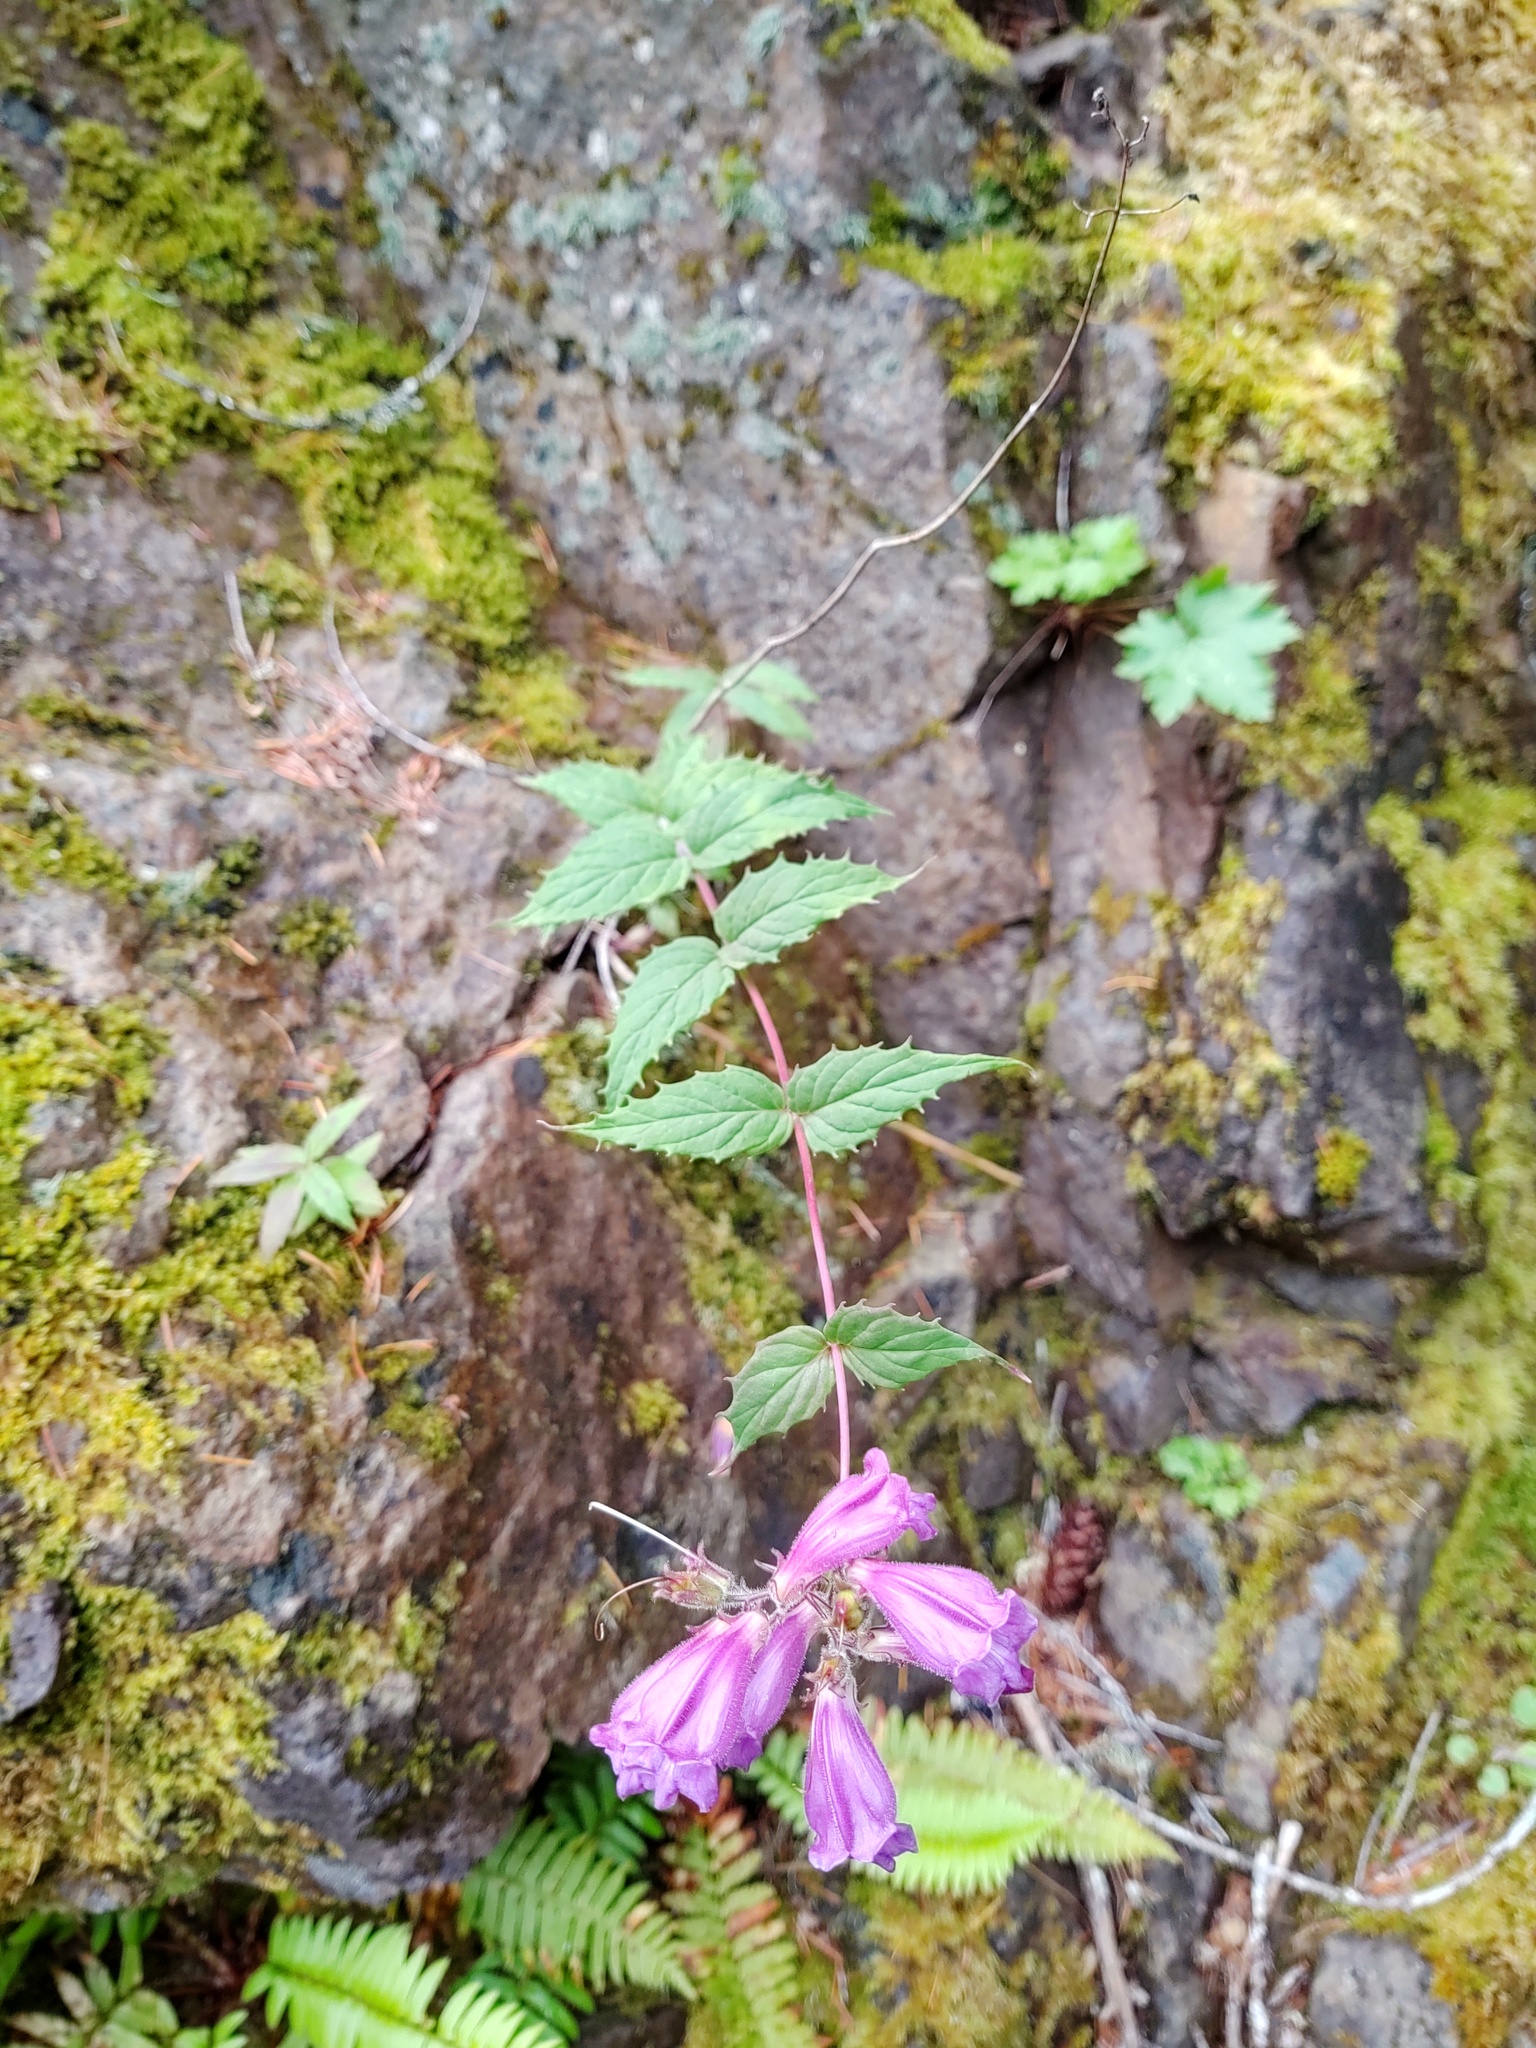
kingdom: Plantae
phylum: Tracheophyta
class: Magnoliopsida
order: Lamiales
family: Plantaginaceae
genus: Nothochelone
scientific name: Nothochelone nemorosa
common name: Woodland beardtongue
